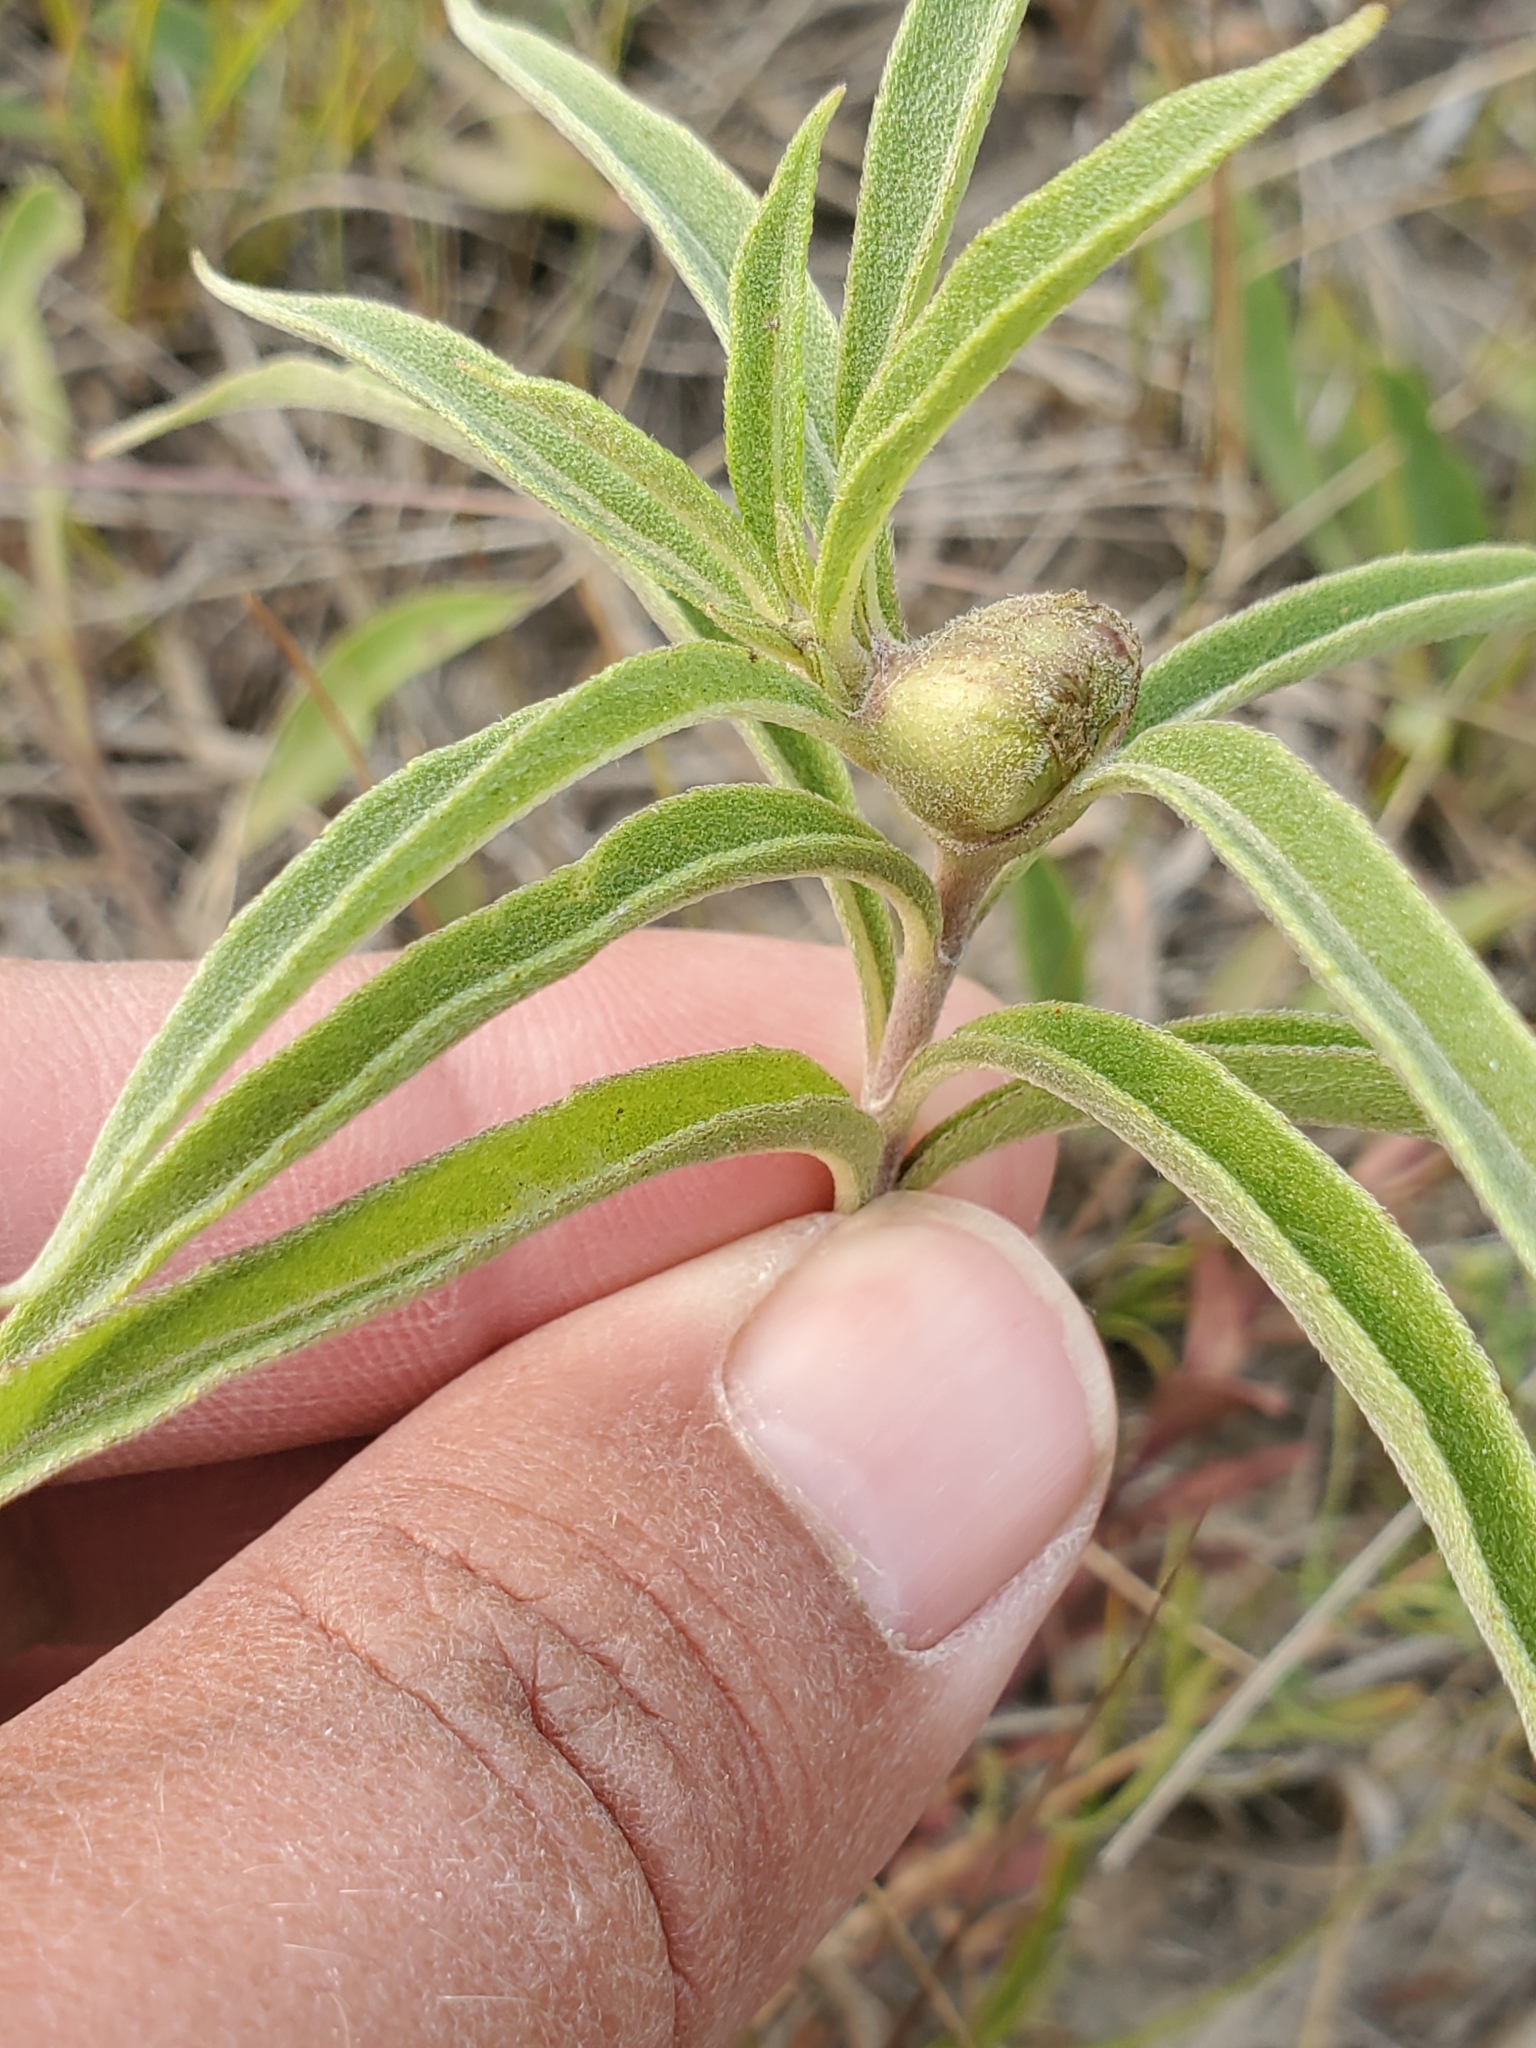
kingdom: Animalia
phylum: Arthropoda
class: Insecta
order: Diptera
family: Cecidomyiidae
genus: Asphondylia
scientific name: Asphondylia helianthiglobulus
